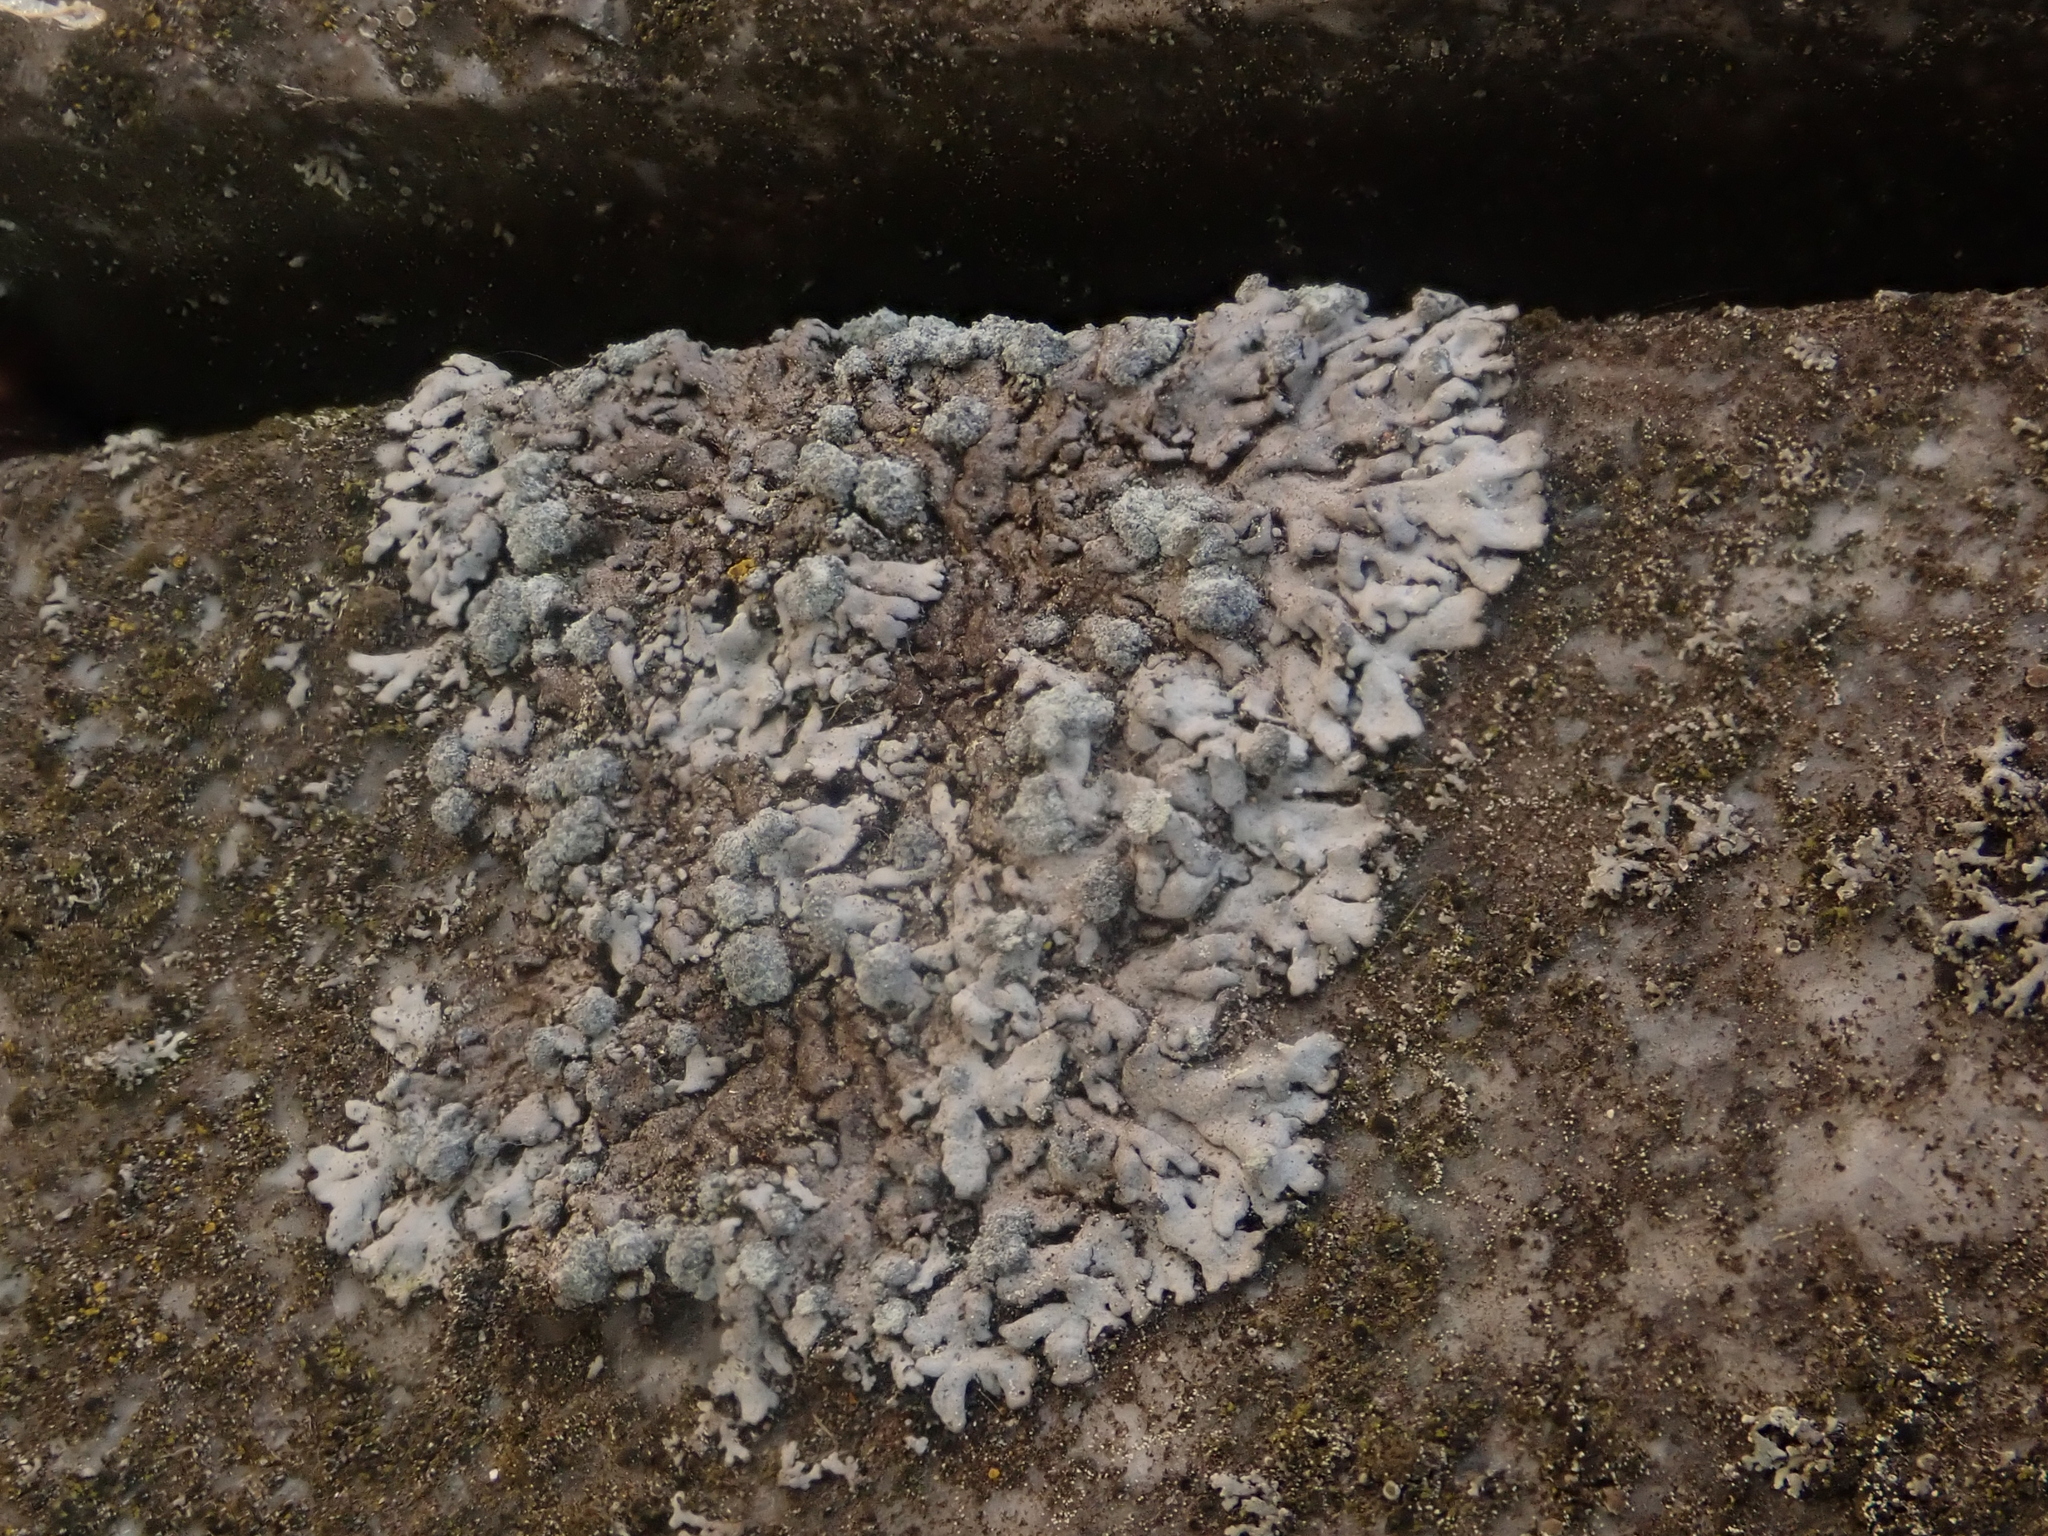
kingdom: Fungi
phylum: Ascomycota
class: Lecanoromycetes
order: Caliciales
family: Physciaceae
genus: Physcia
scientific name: Physcia caesia
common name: Blue-gray rosette lichen
